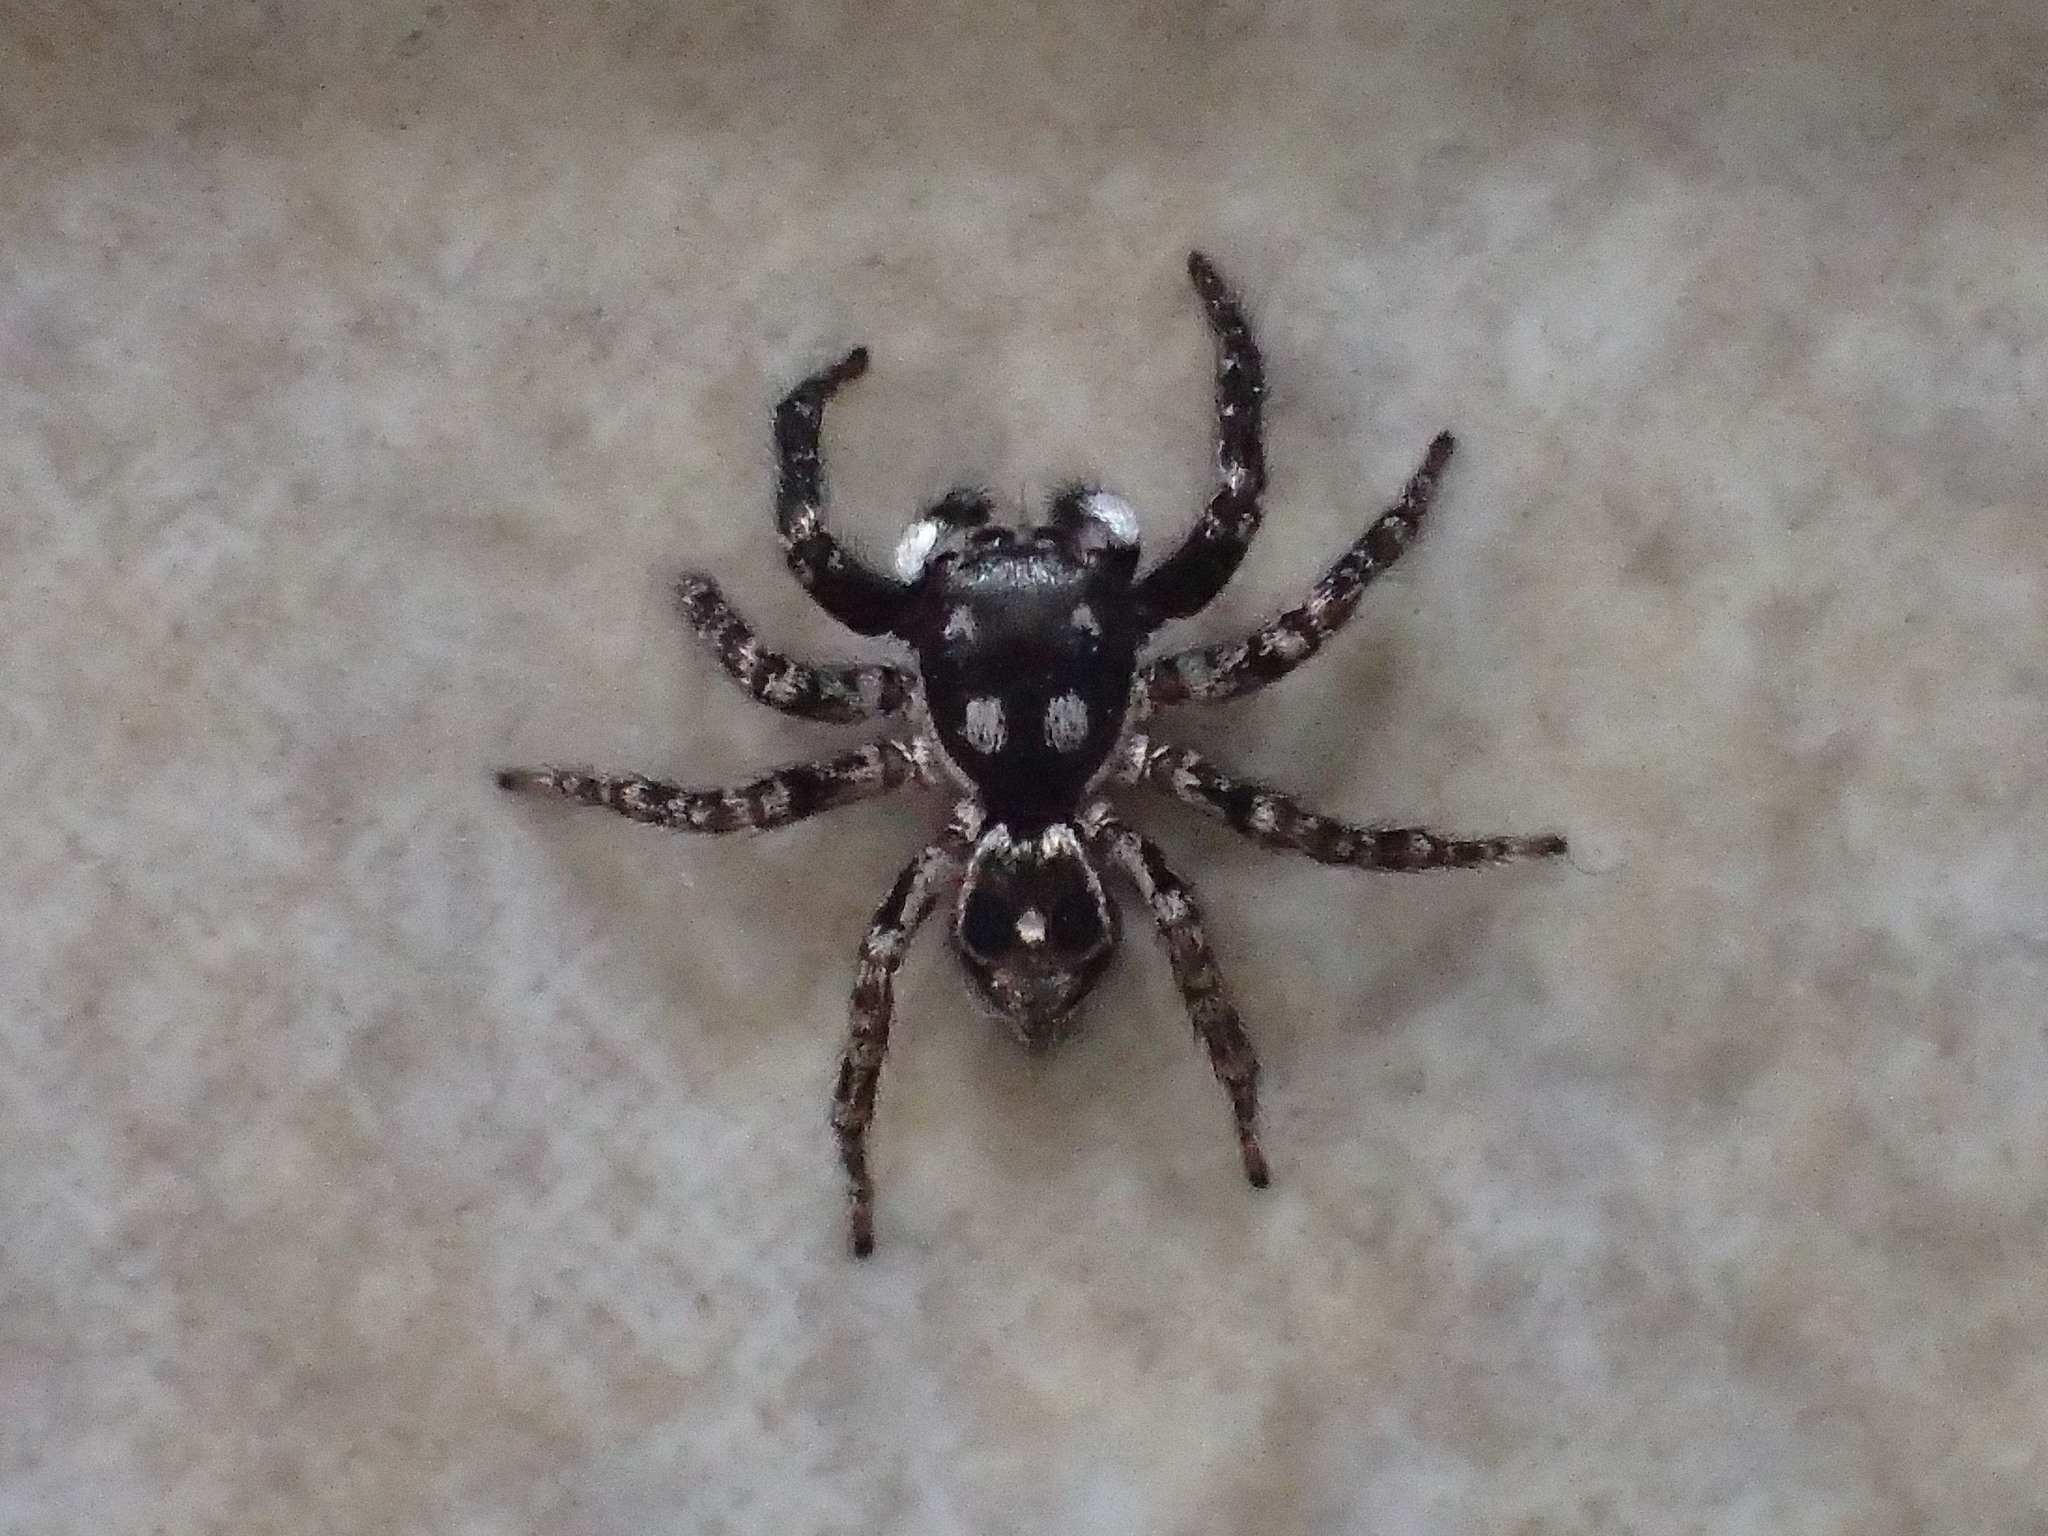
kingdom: Animalia
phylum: Arthropoda
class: Arachnida
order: Araneae
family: Salticidae
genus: Anasaitis
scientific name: Anasaitis canosa
